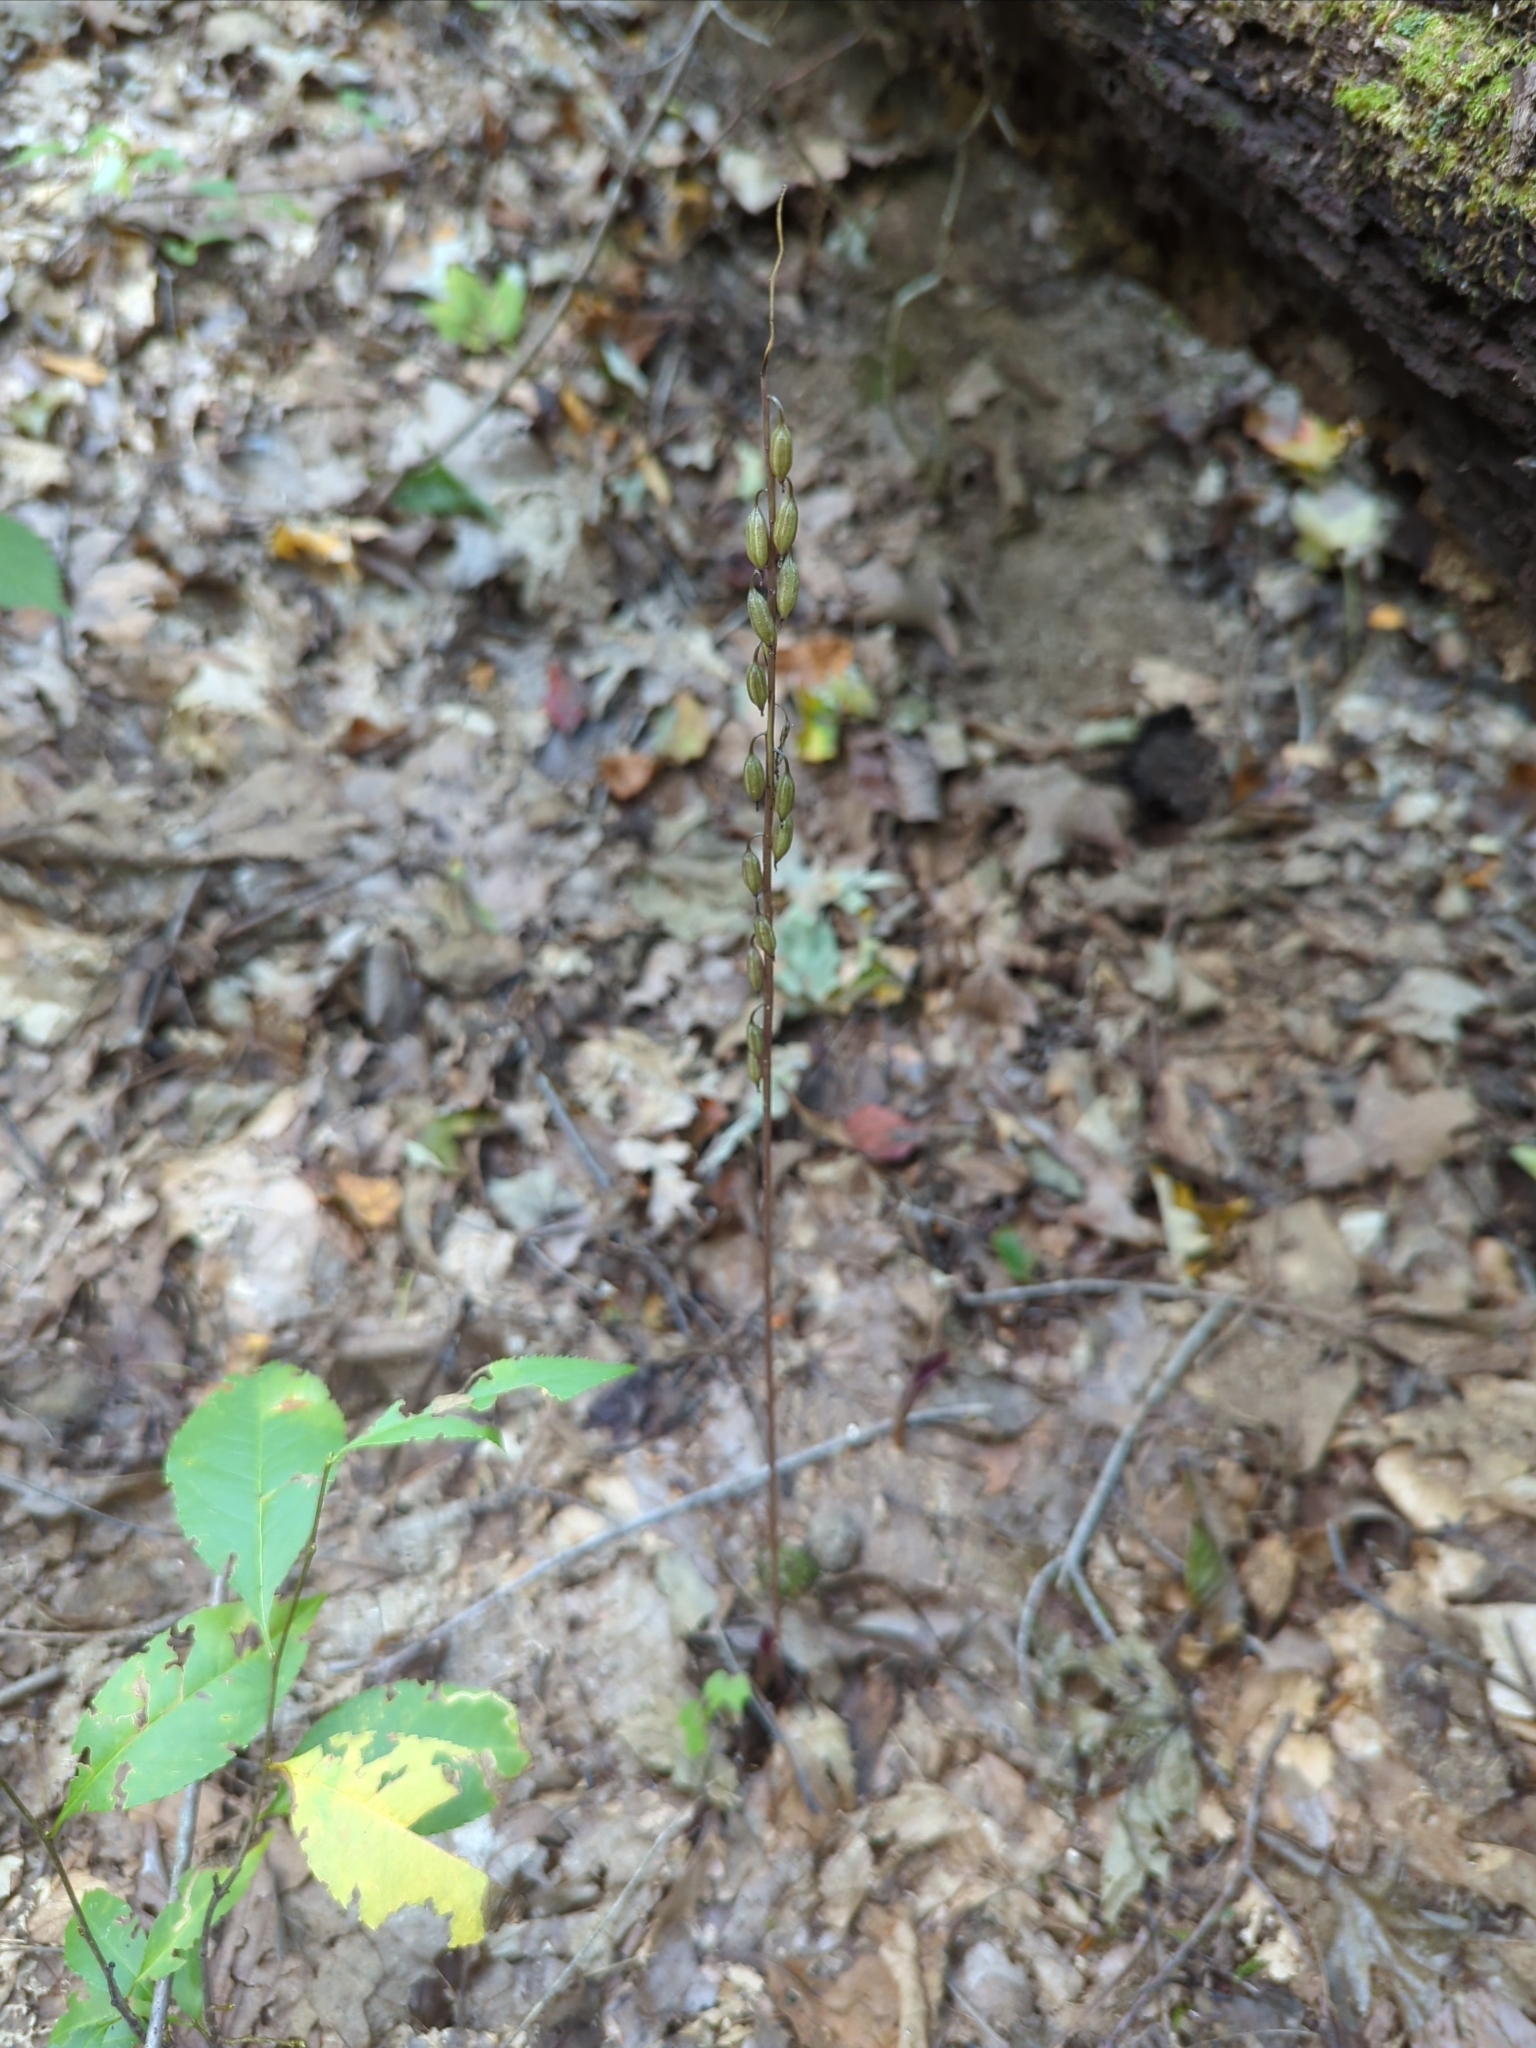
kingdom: Plantae
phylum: Tracheophyta
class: Liliopsida
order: Asparagales
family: Orchidaceae
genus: Tipularia
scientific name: Tipularia discolor
